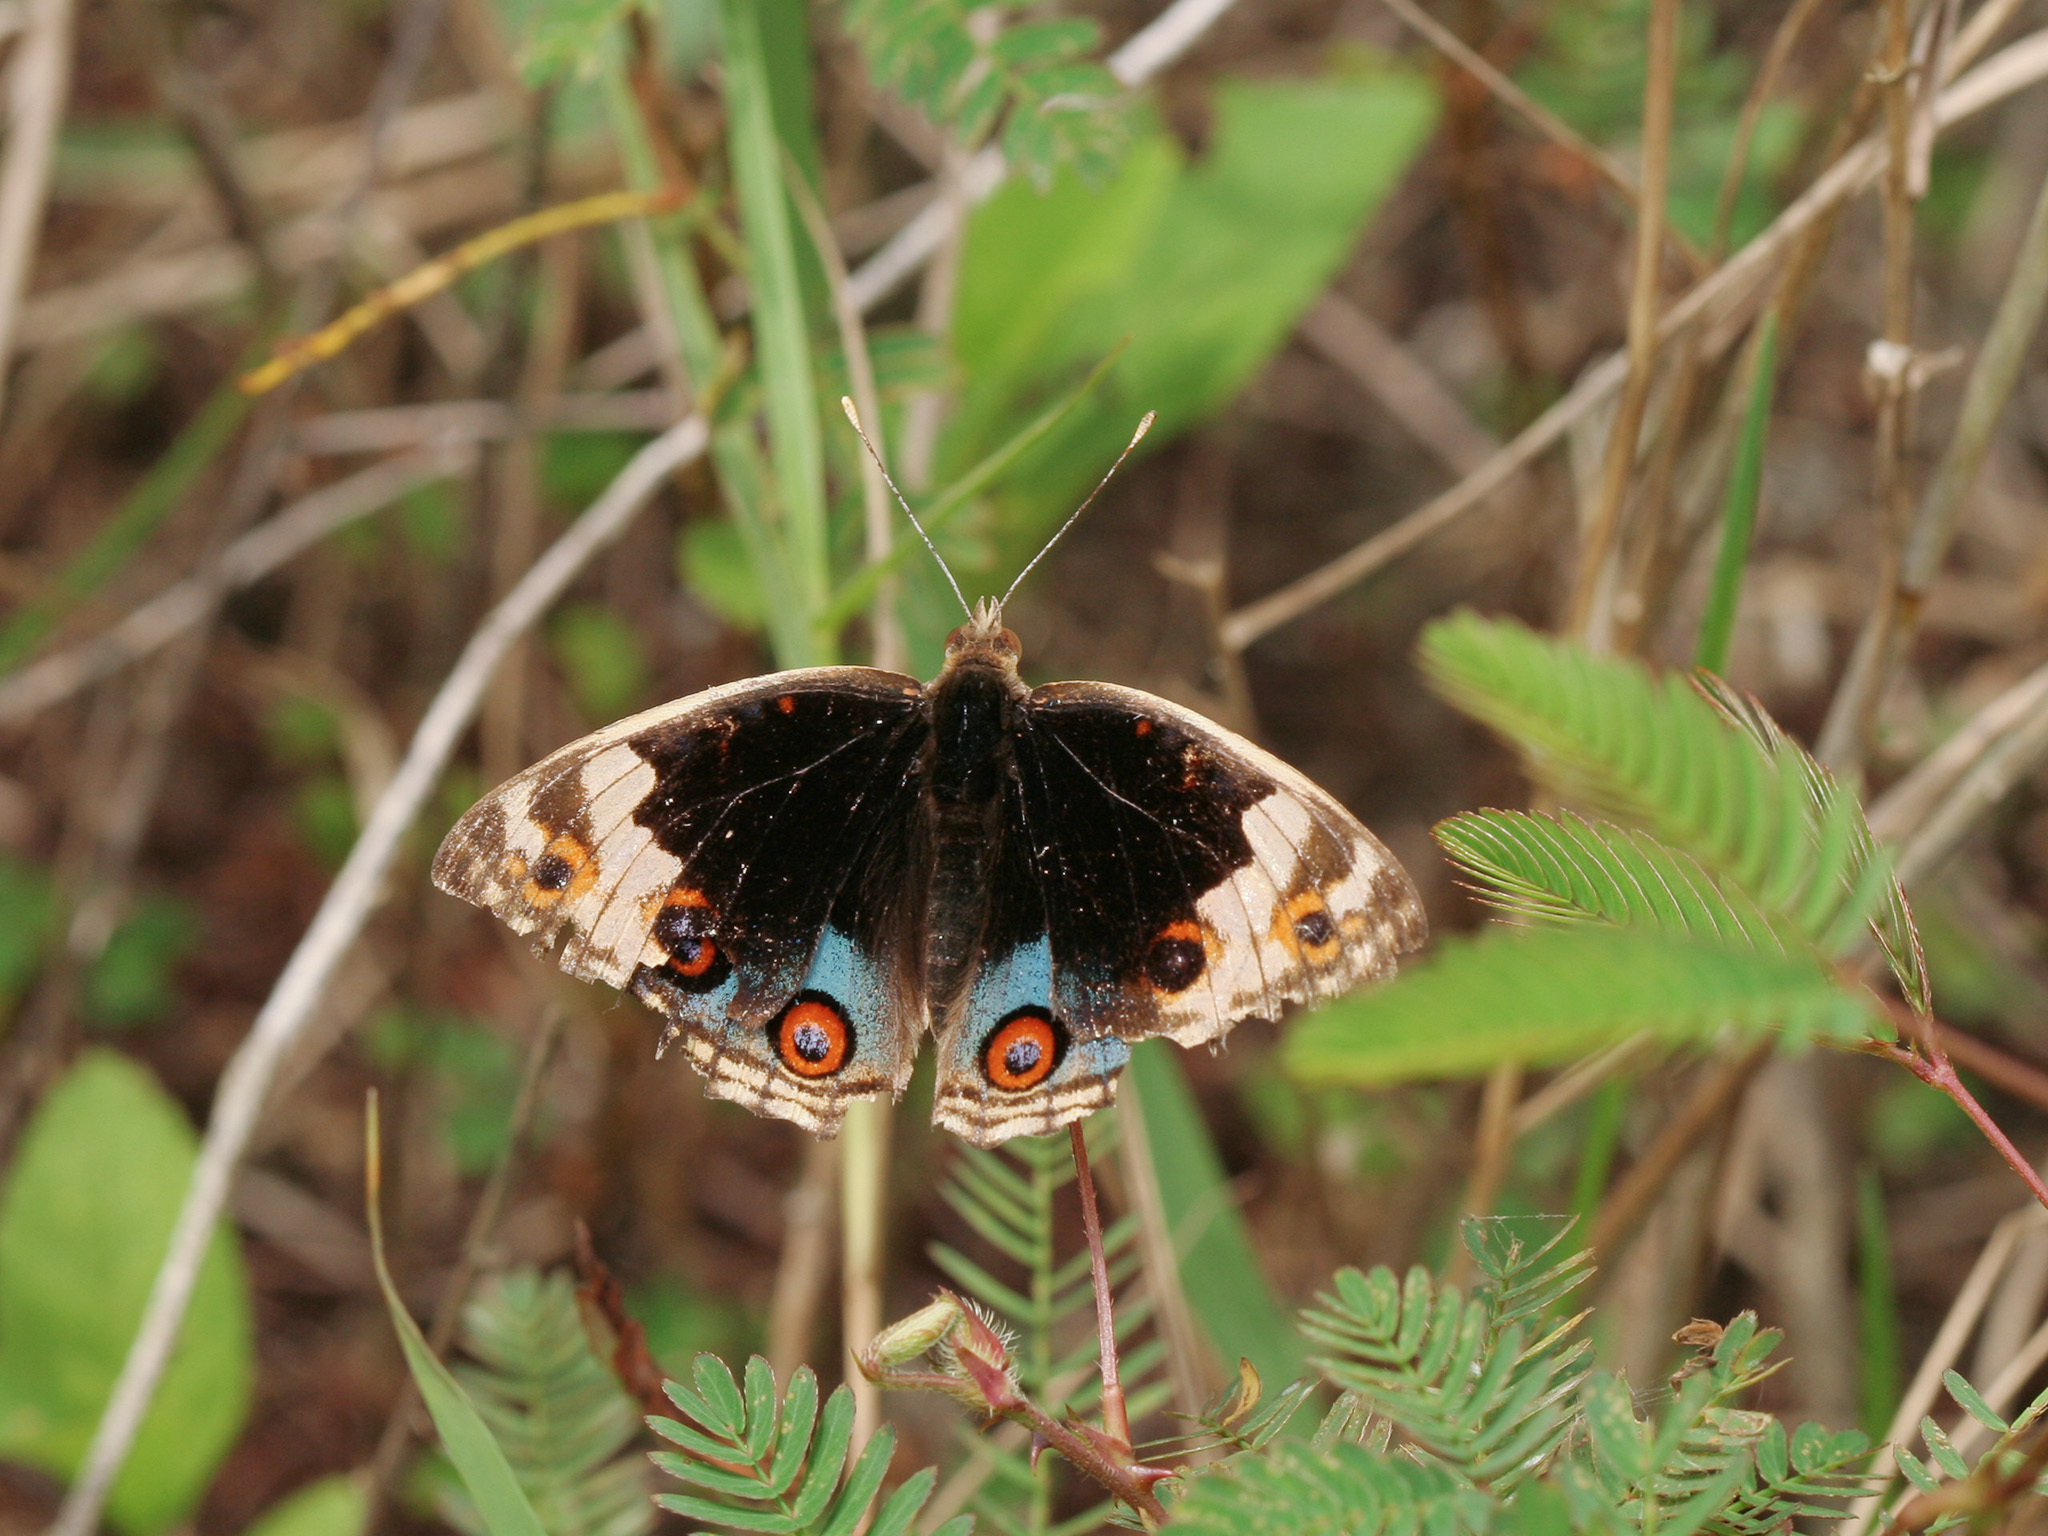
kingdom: Animalia
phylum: Arthropoda
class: Insecta
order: Lepidoptera
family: Nymphalidae
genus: Junonia
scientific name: Junonia orithya
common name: Blue pansy
